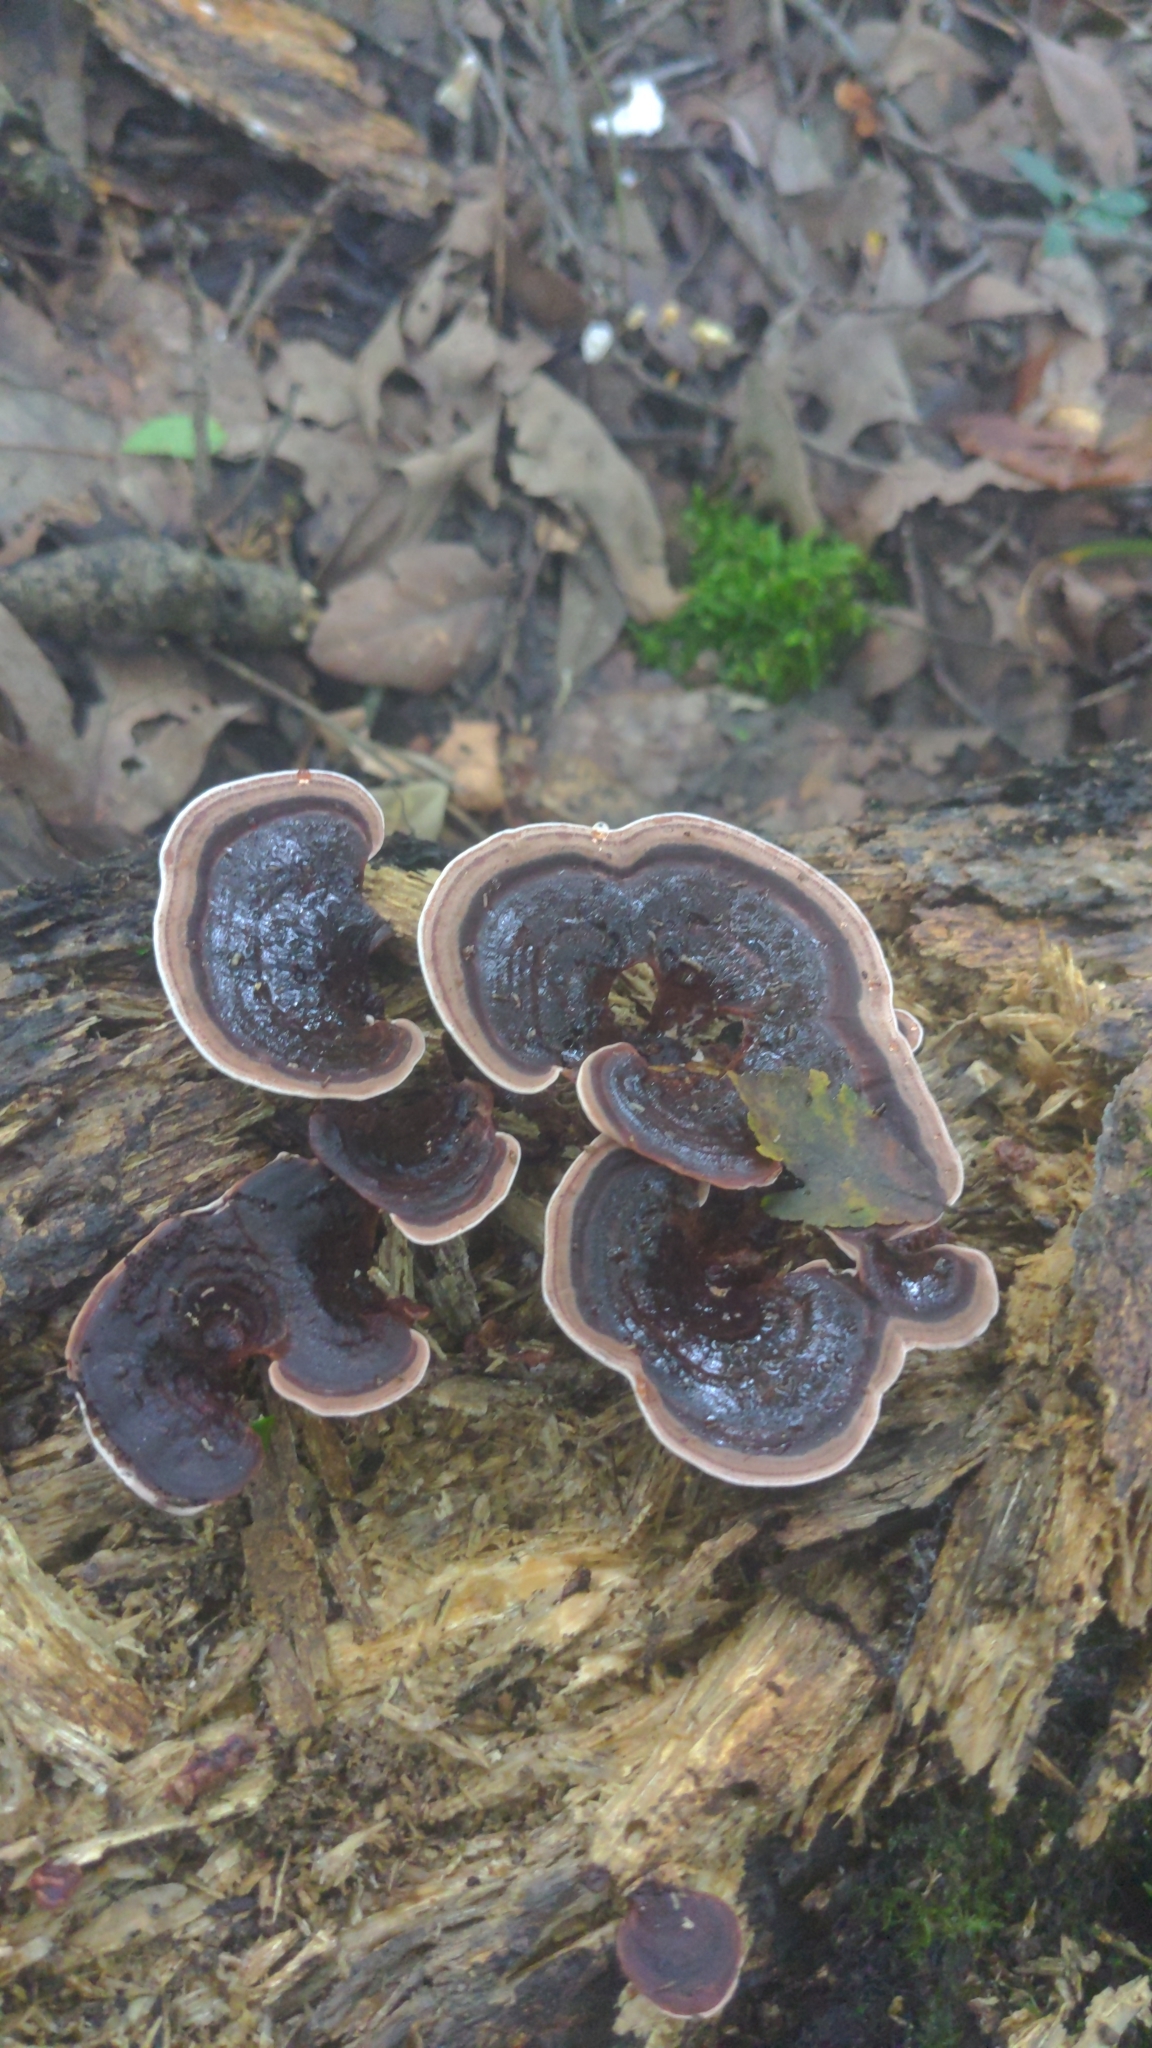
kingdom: Fungi
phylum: Basidiomycota
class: Agaricomycetes
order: Polyporales
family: Steccherinaceae
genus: Nigroporus
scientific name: Nigroporus vinosus
